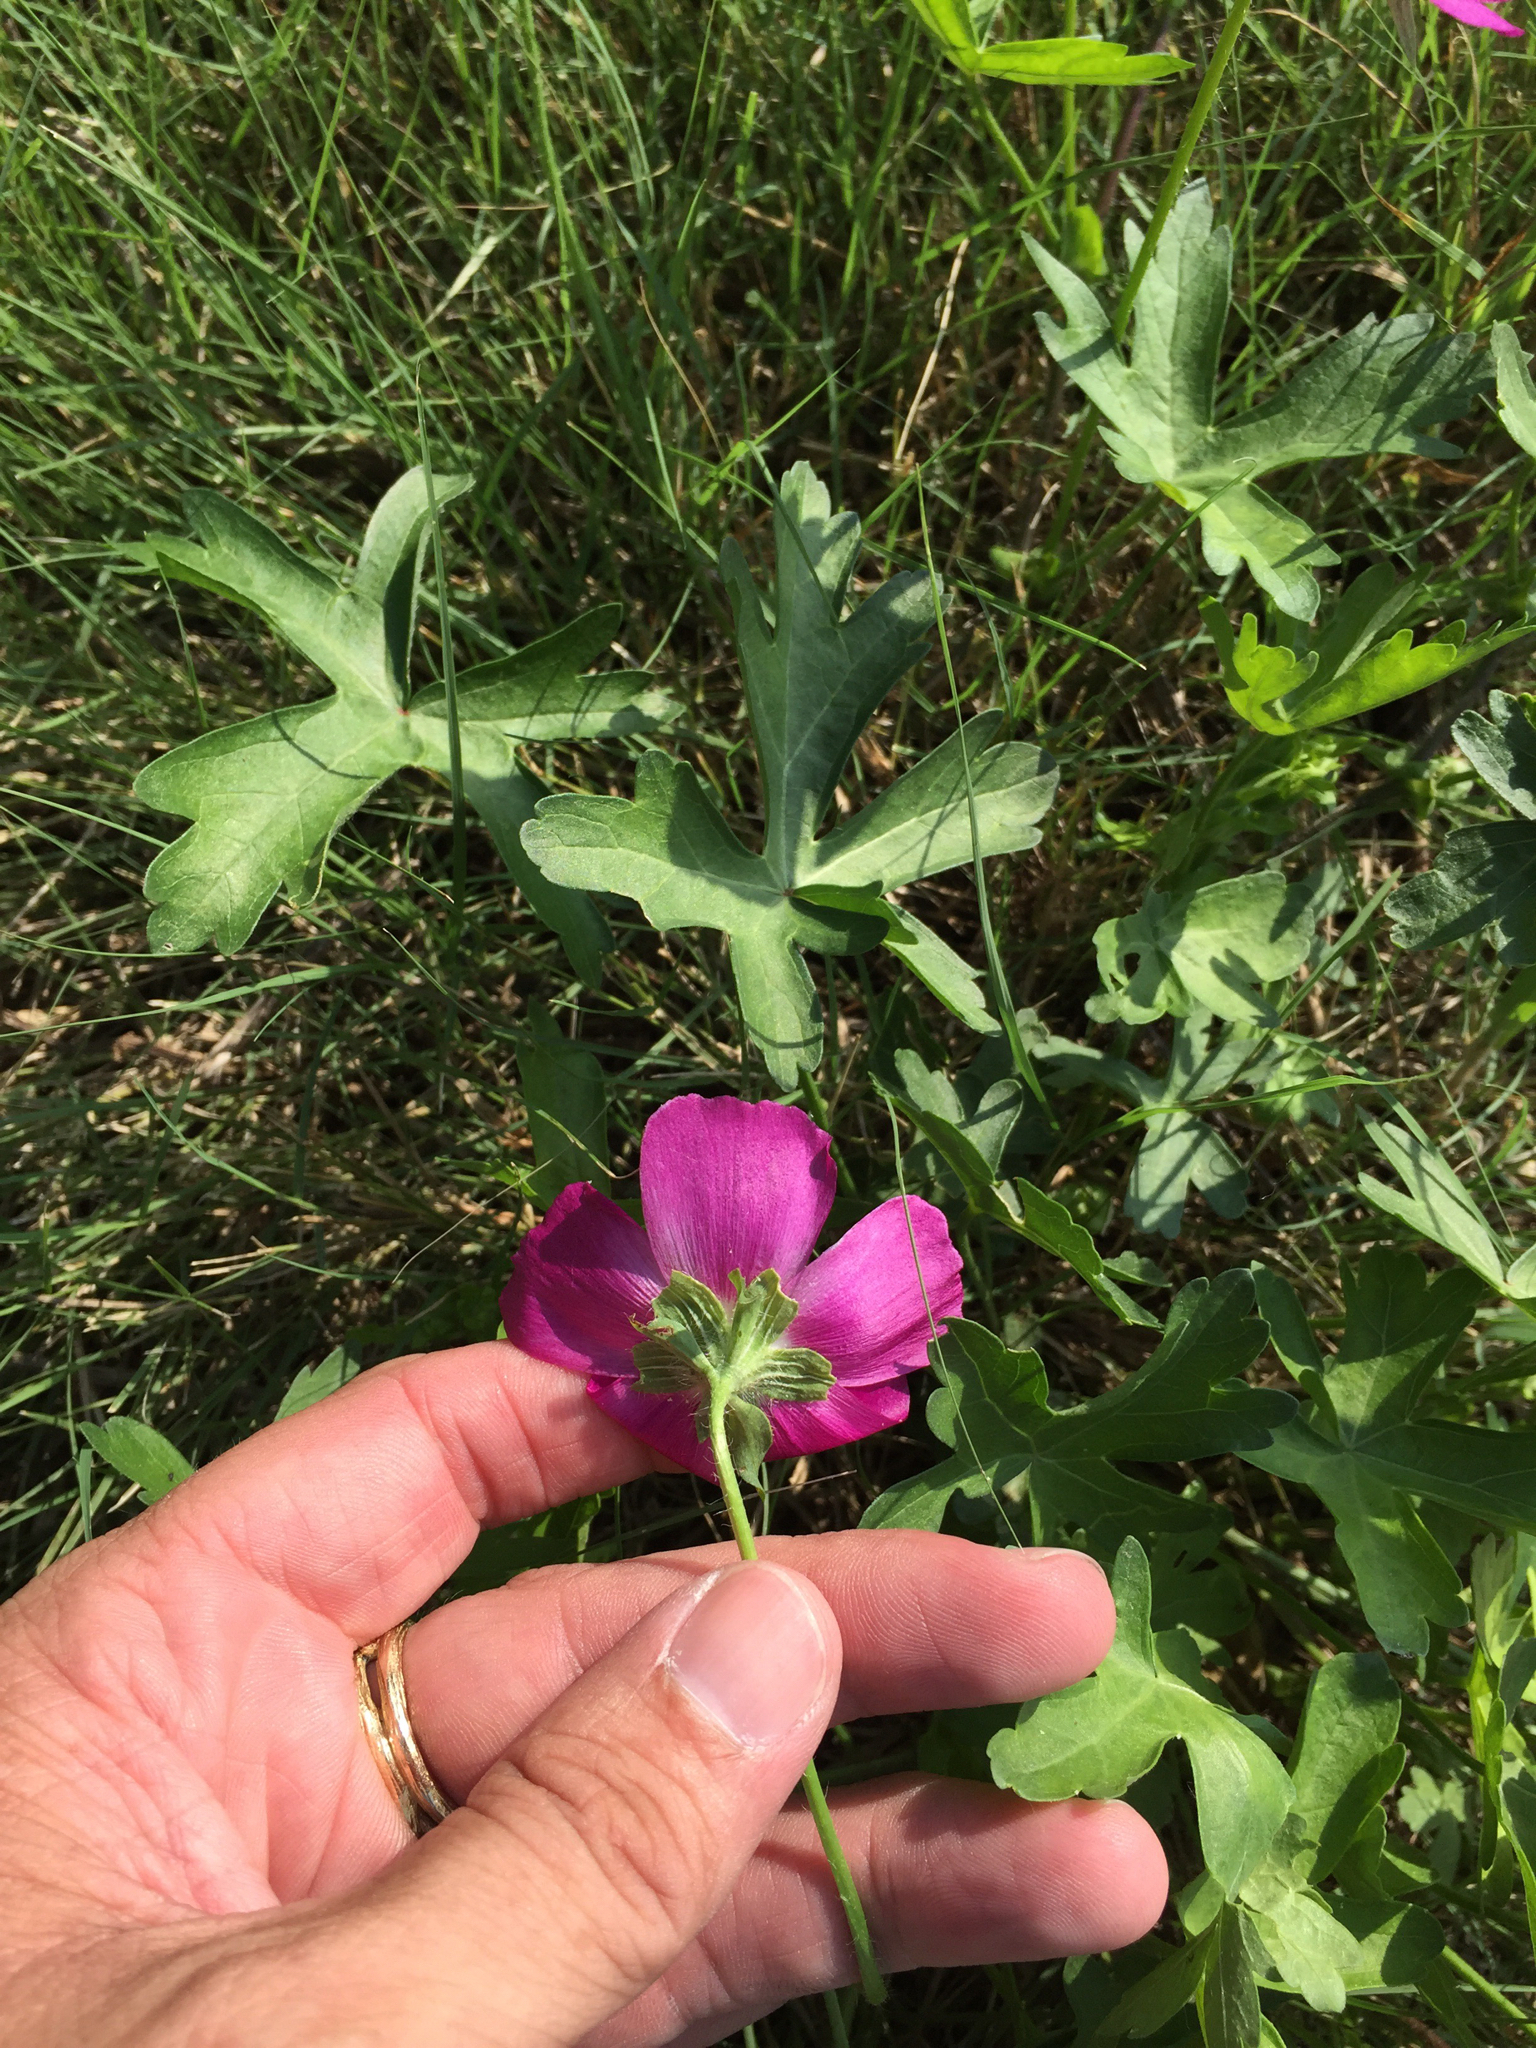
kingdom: Plantae
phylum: Tracheophyta
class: Magnoliopsida
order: Malvales
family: Malvaceae
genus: Callirhoe
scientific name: Callirhoe involucrata
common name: Purple poppy-mallow
